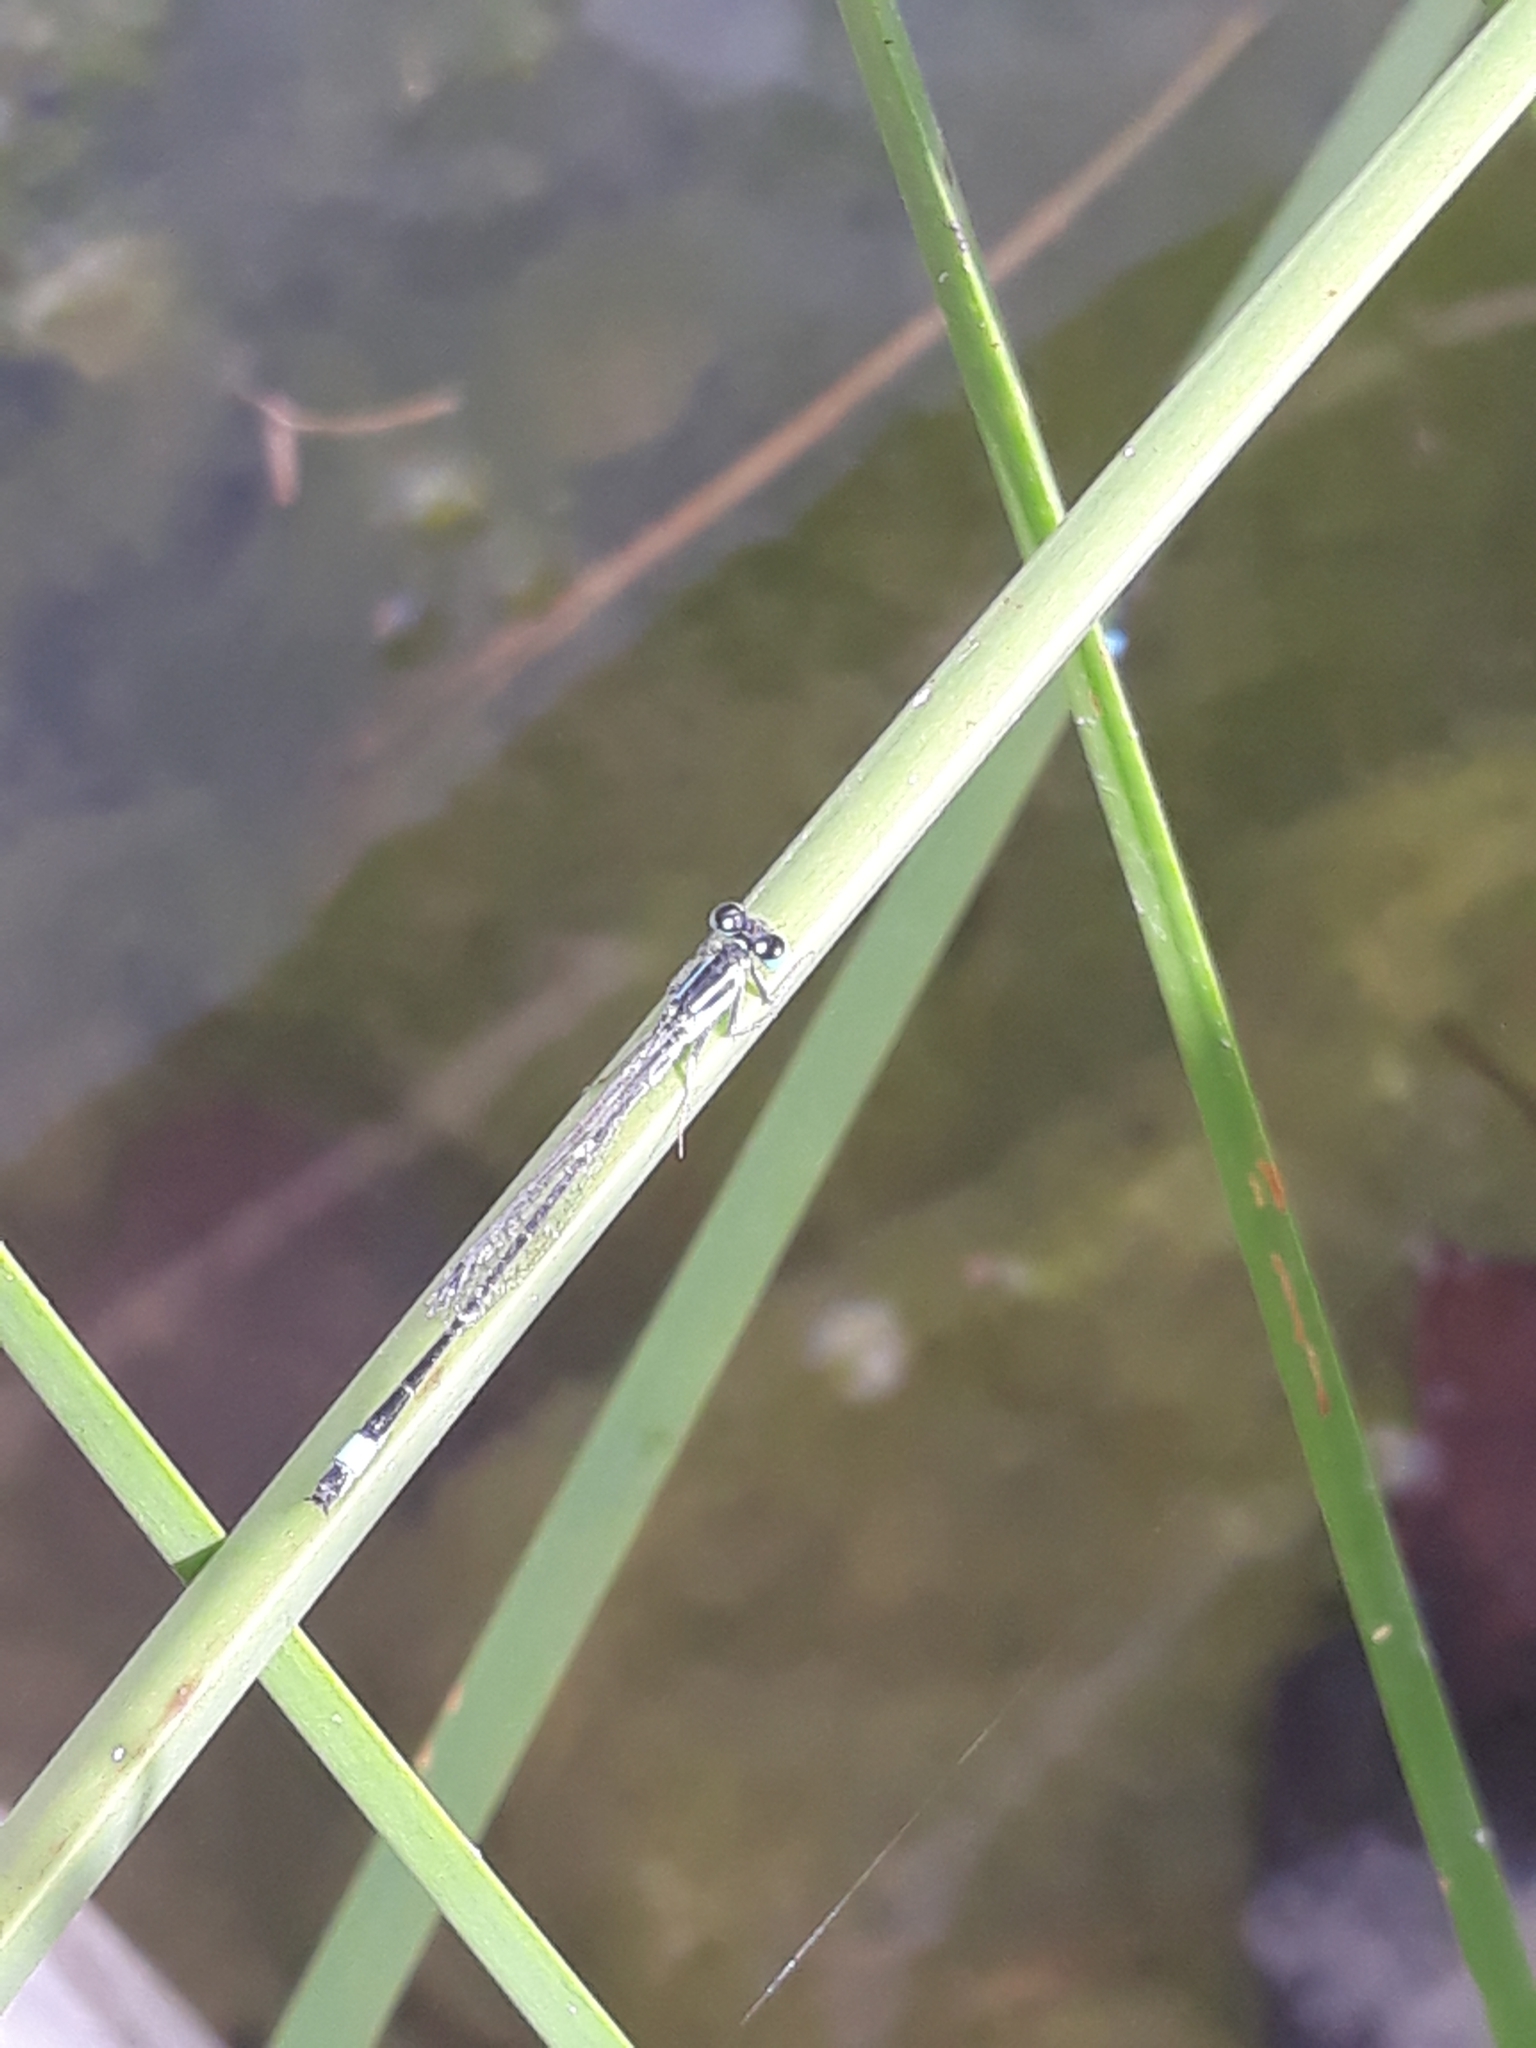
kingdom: Animalia
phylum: Arthropoda
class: Insecta
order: Odonata
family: Coenagrionidae
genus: Ischnura
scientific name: Ischnura elegans
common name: Blue-tailed damselfly
